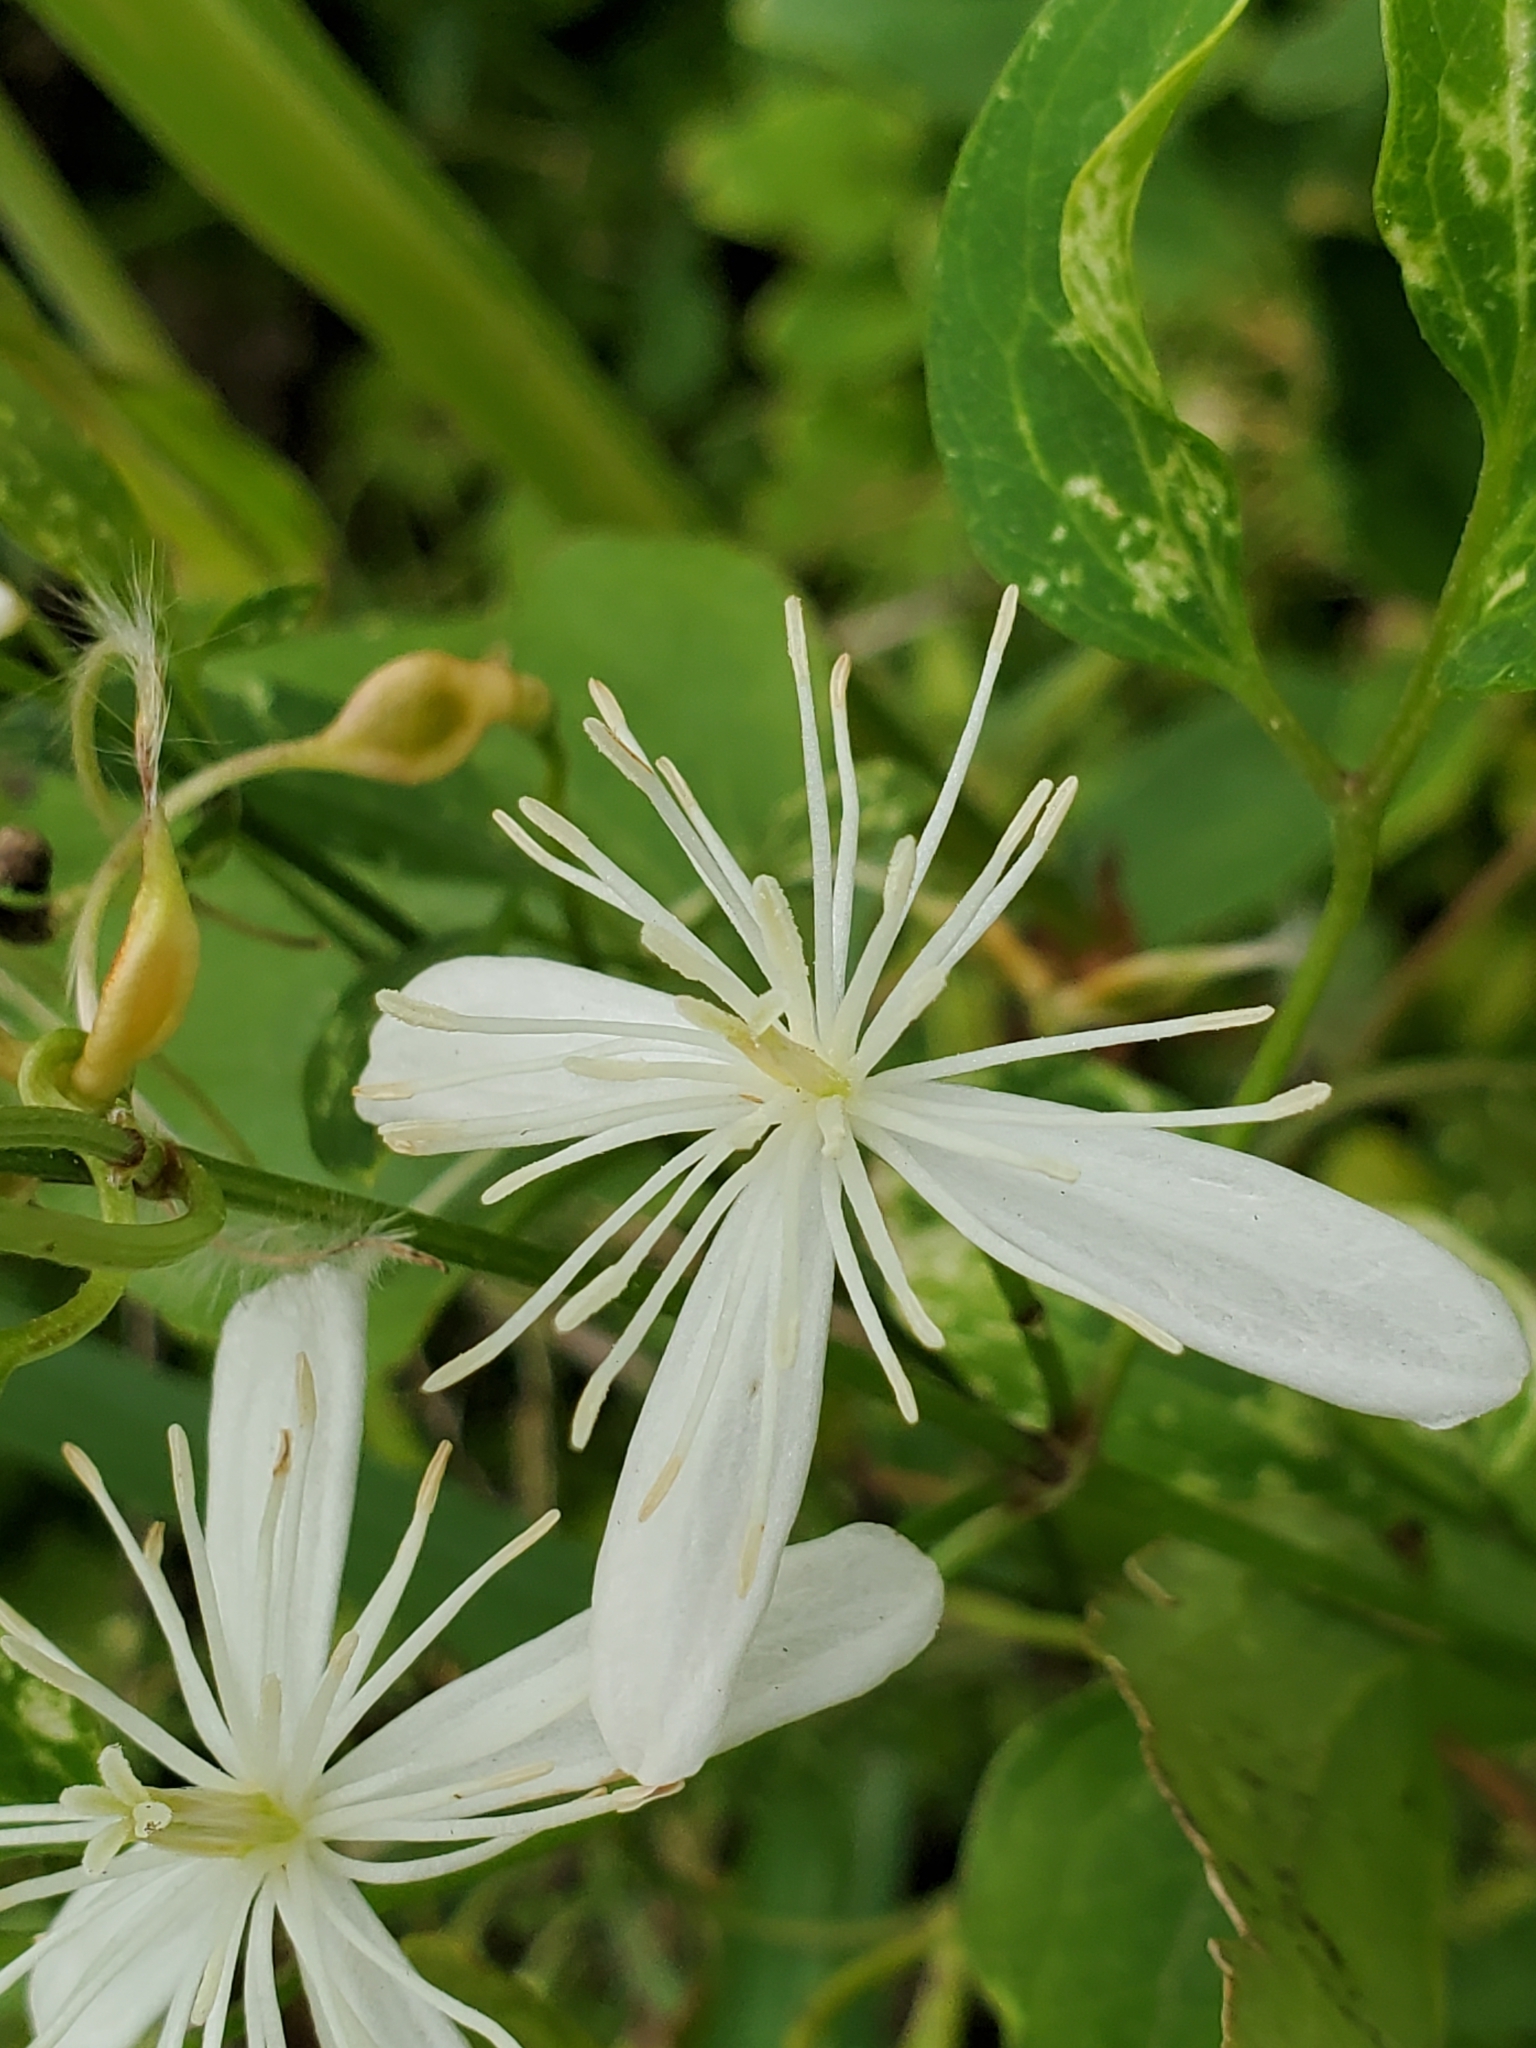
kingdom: Plantae
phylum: Tracheophyta
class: Magnoliopsida
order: Ranunculales
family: Ranunculaceae
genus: Clematis
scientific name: Clematis terniflora
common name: Sweet autumn clematis
